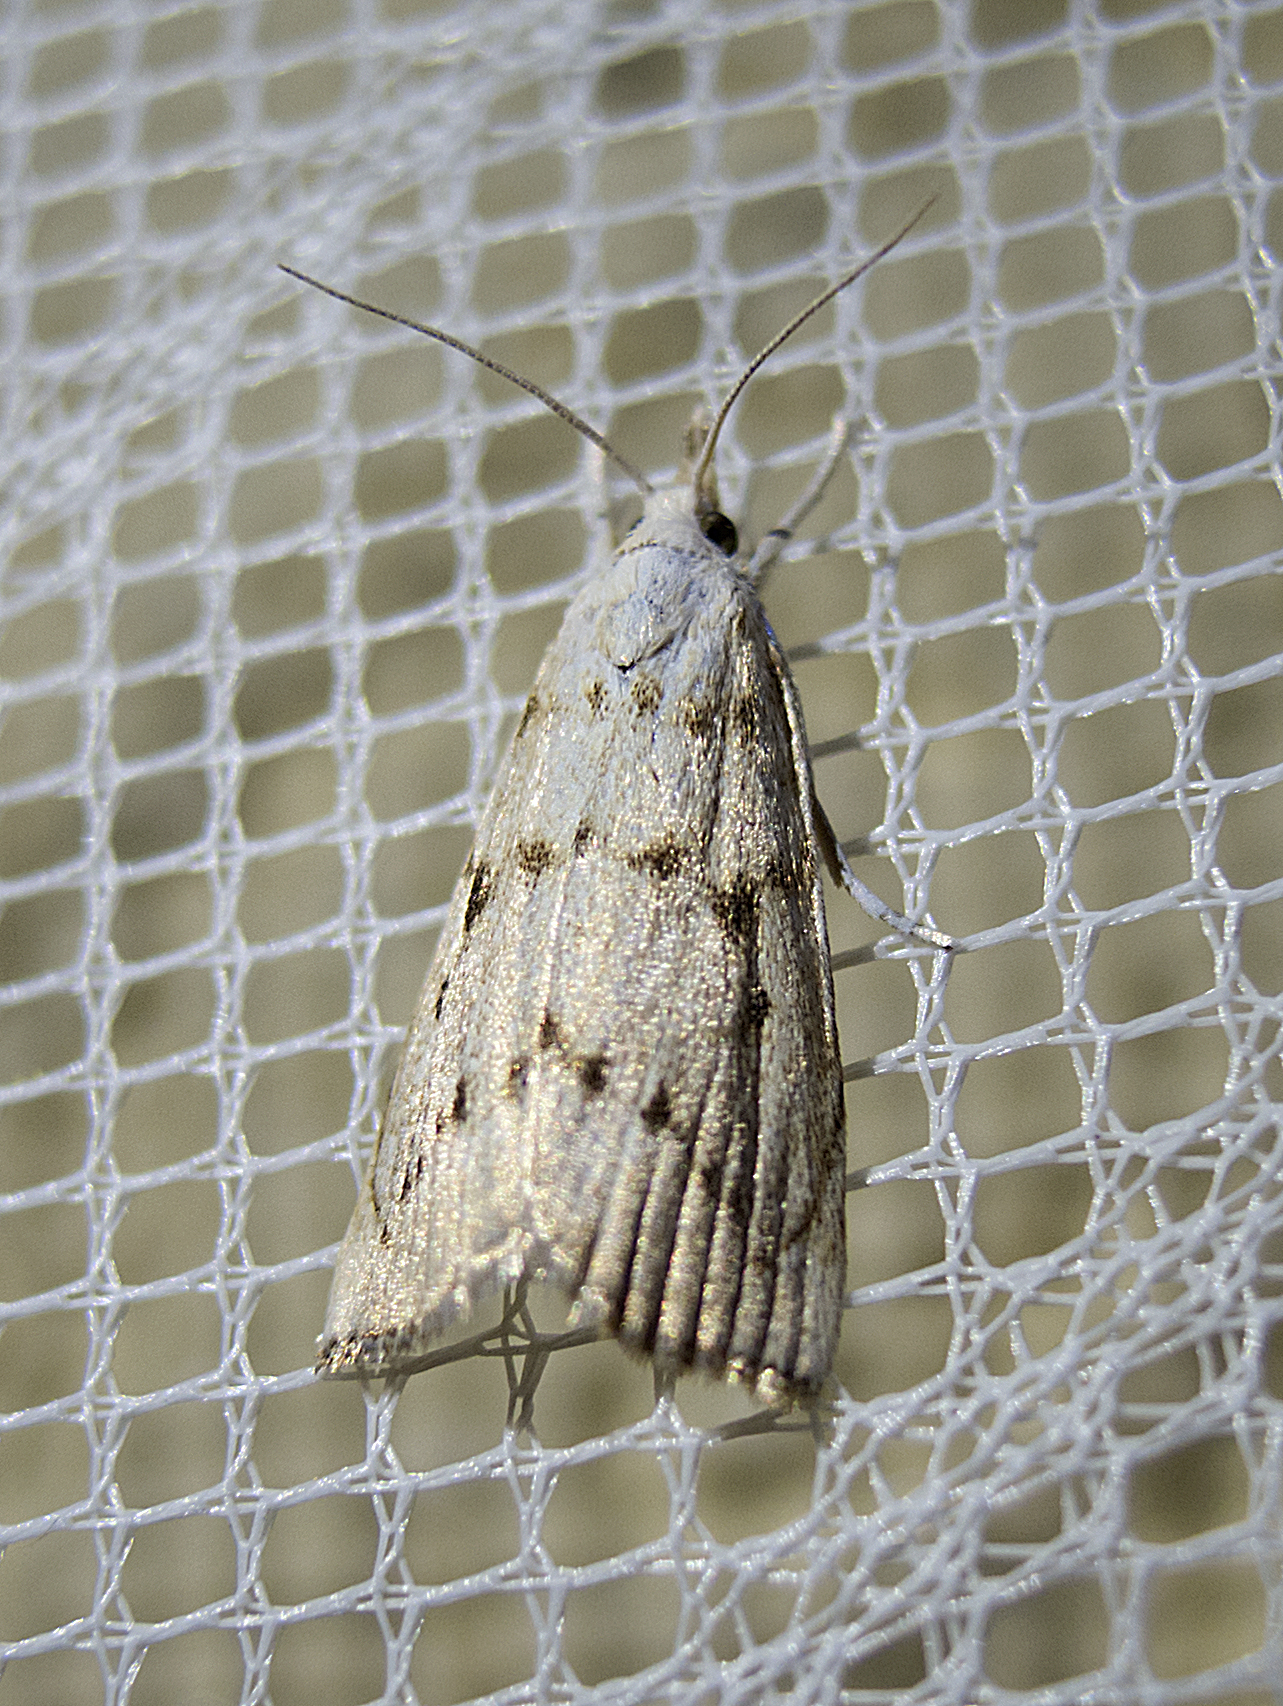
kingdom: Animalia
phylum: Arthropoda
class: Insecta
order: Lepidoptera
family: Crambidae
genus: Calamotropha
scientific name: Calamotropha paludella
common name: Bulrush veneer
